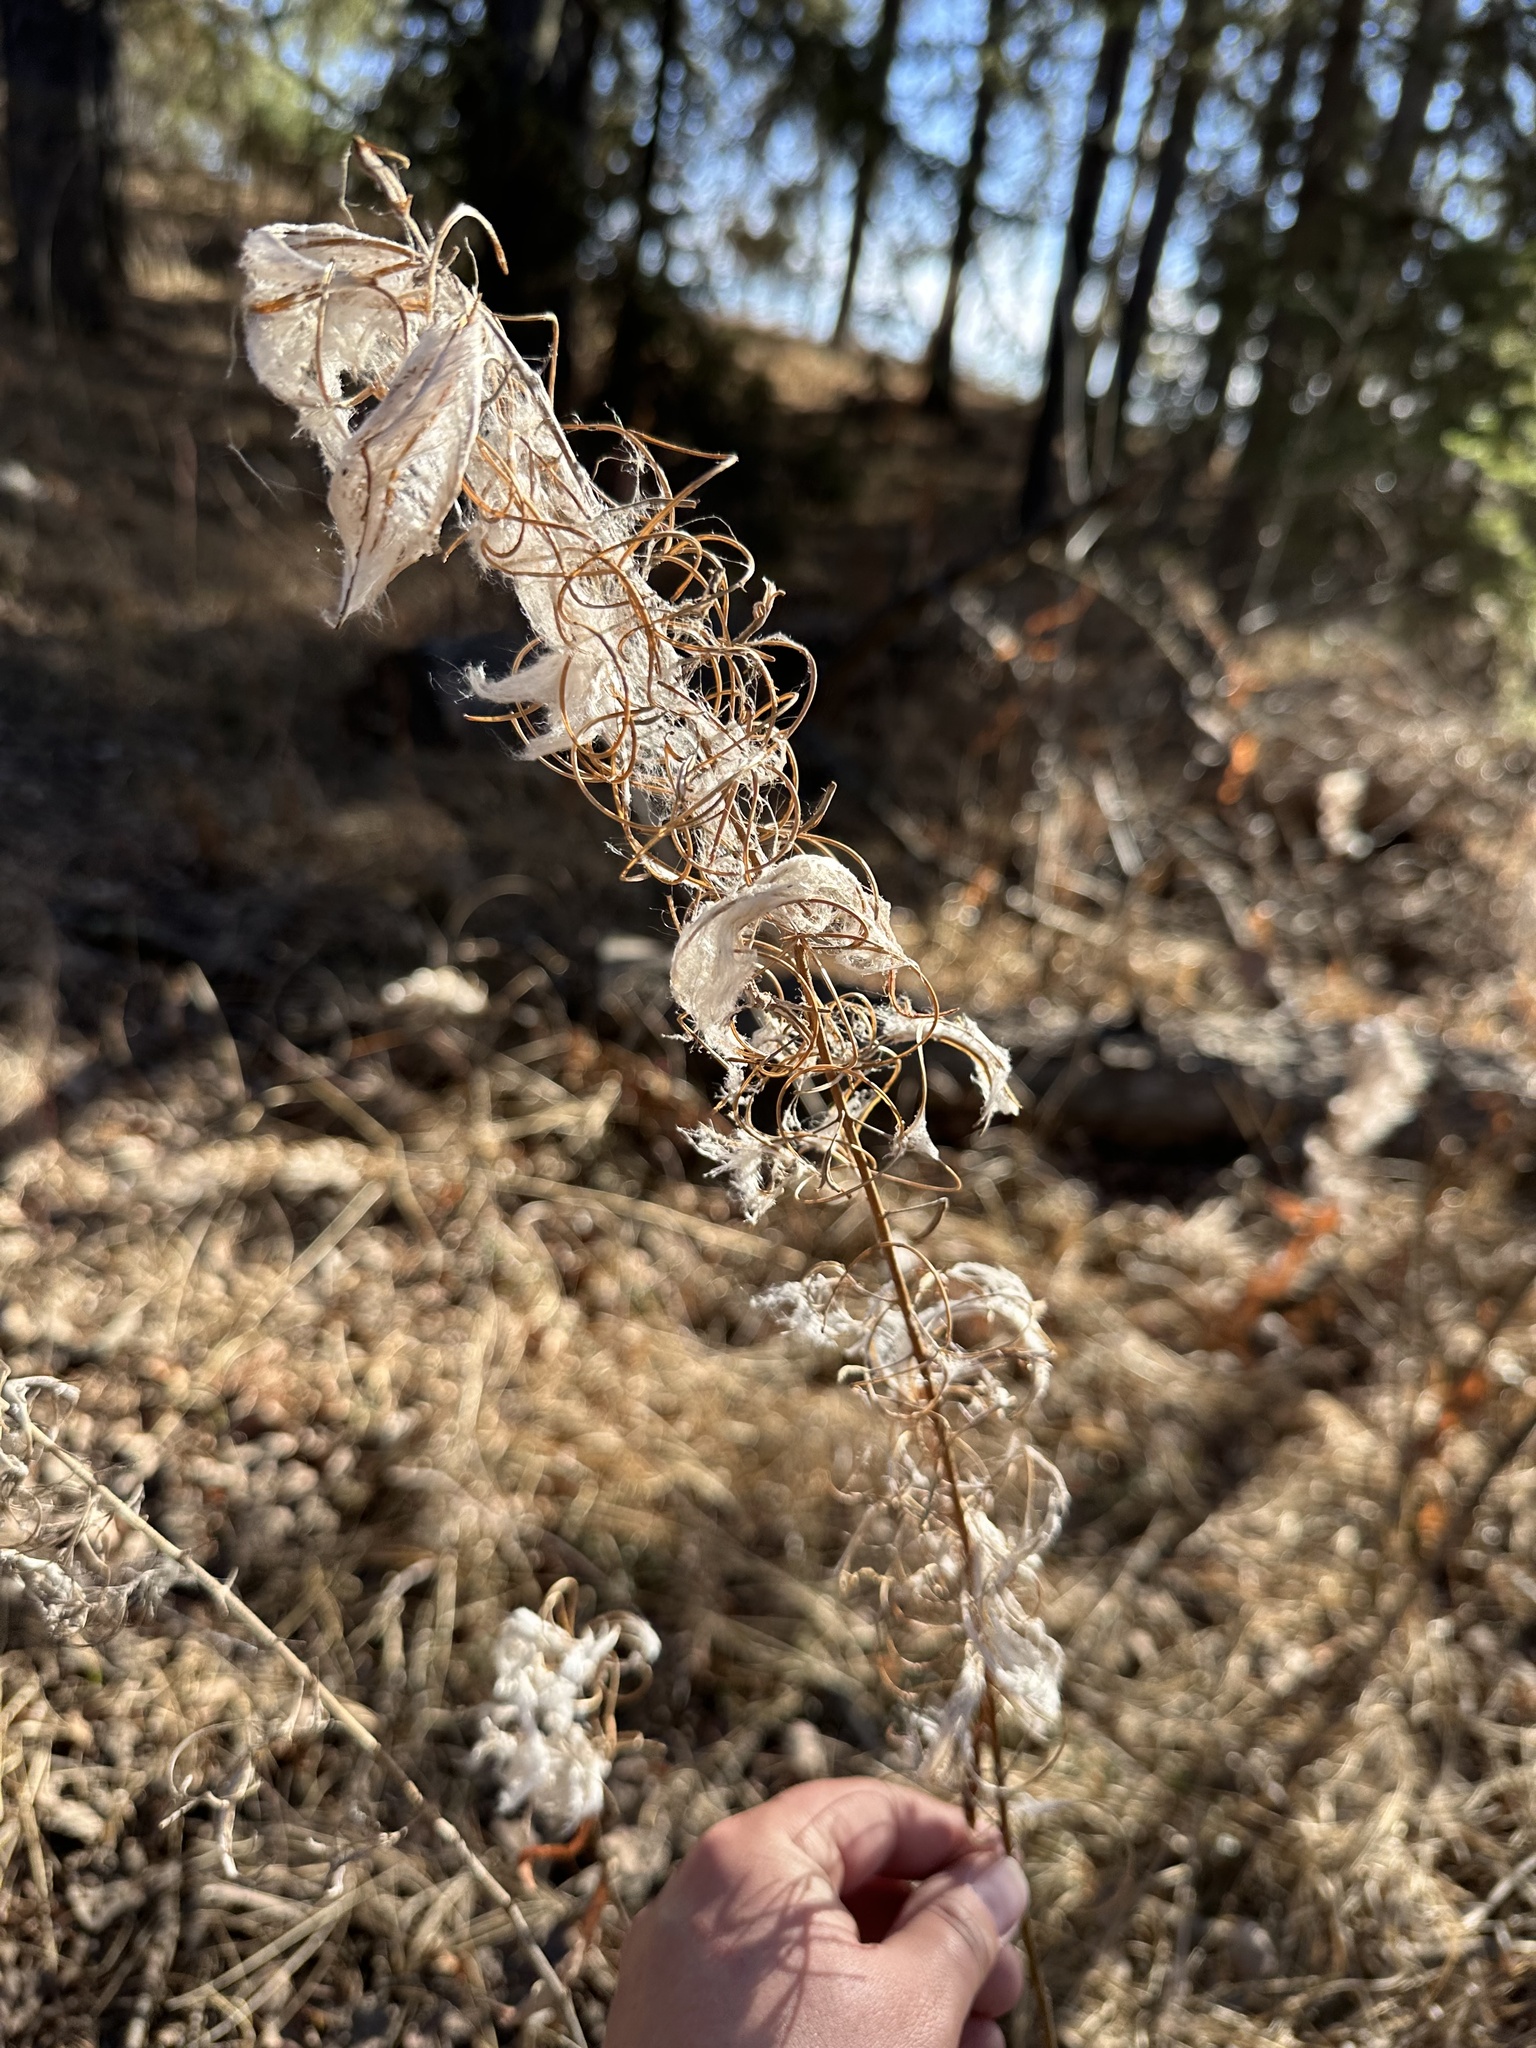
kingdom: Plantae
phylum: Tracheophyta
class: Magnoliopsida
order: Myrtales
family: Onagraceae
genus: Chamaenerion
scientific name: Chamaenerion angustifolium
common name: Fireweed
